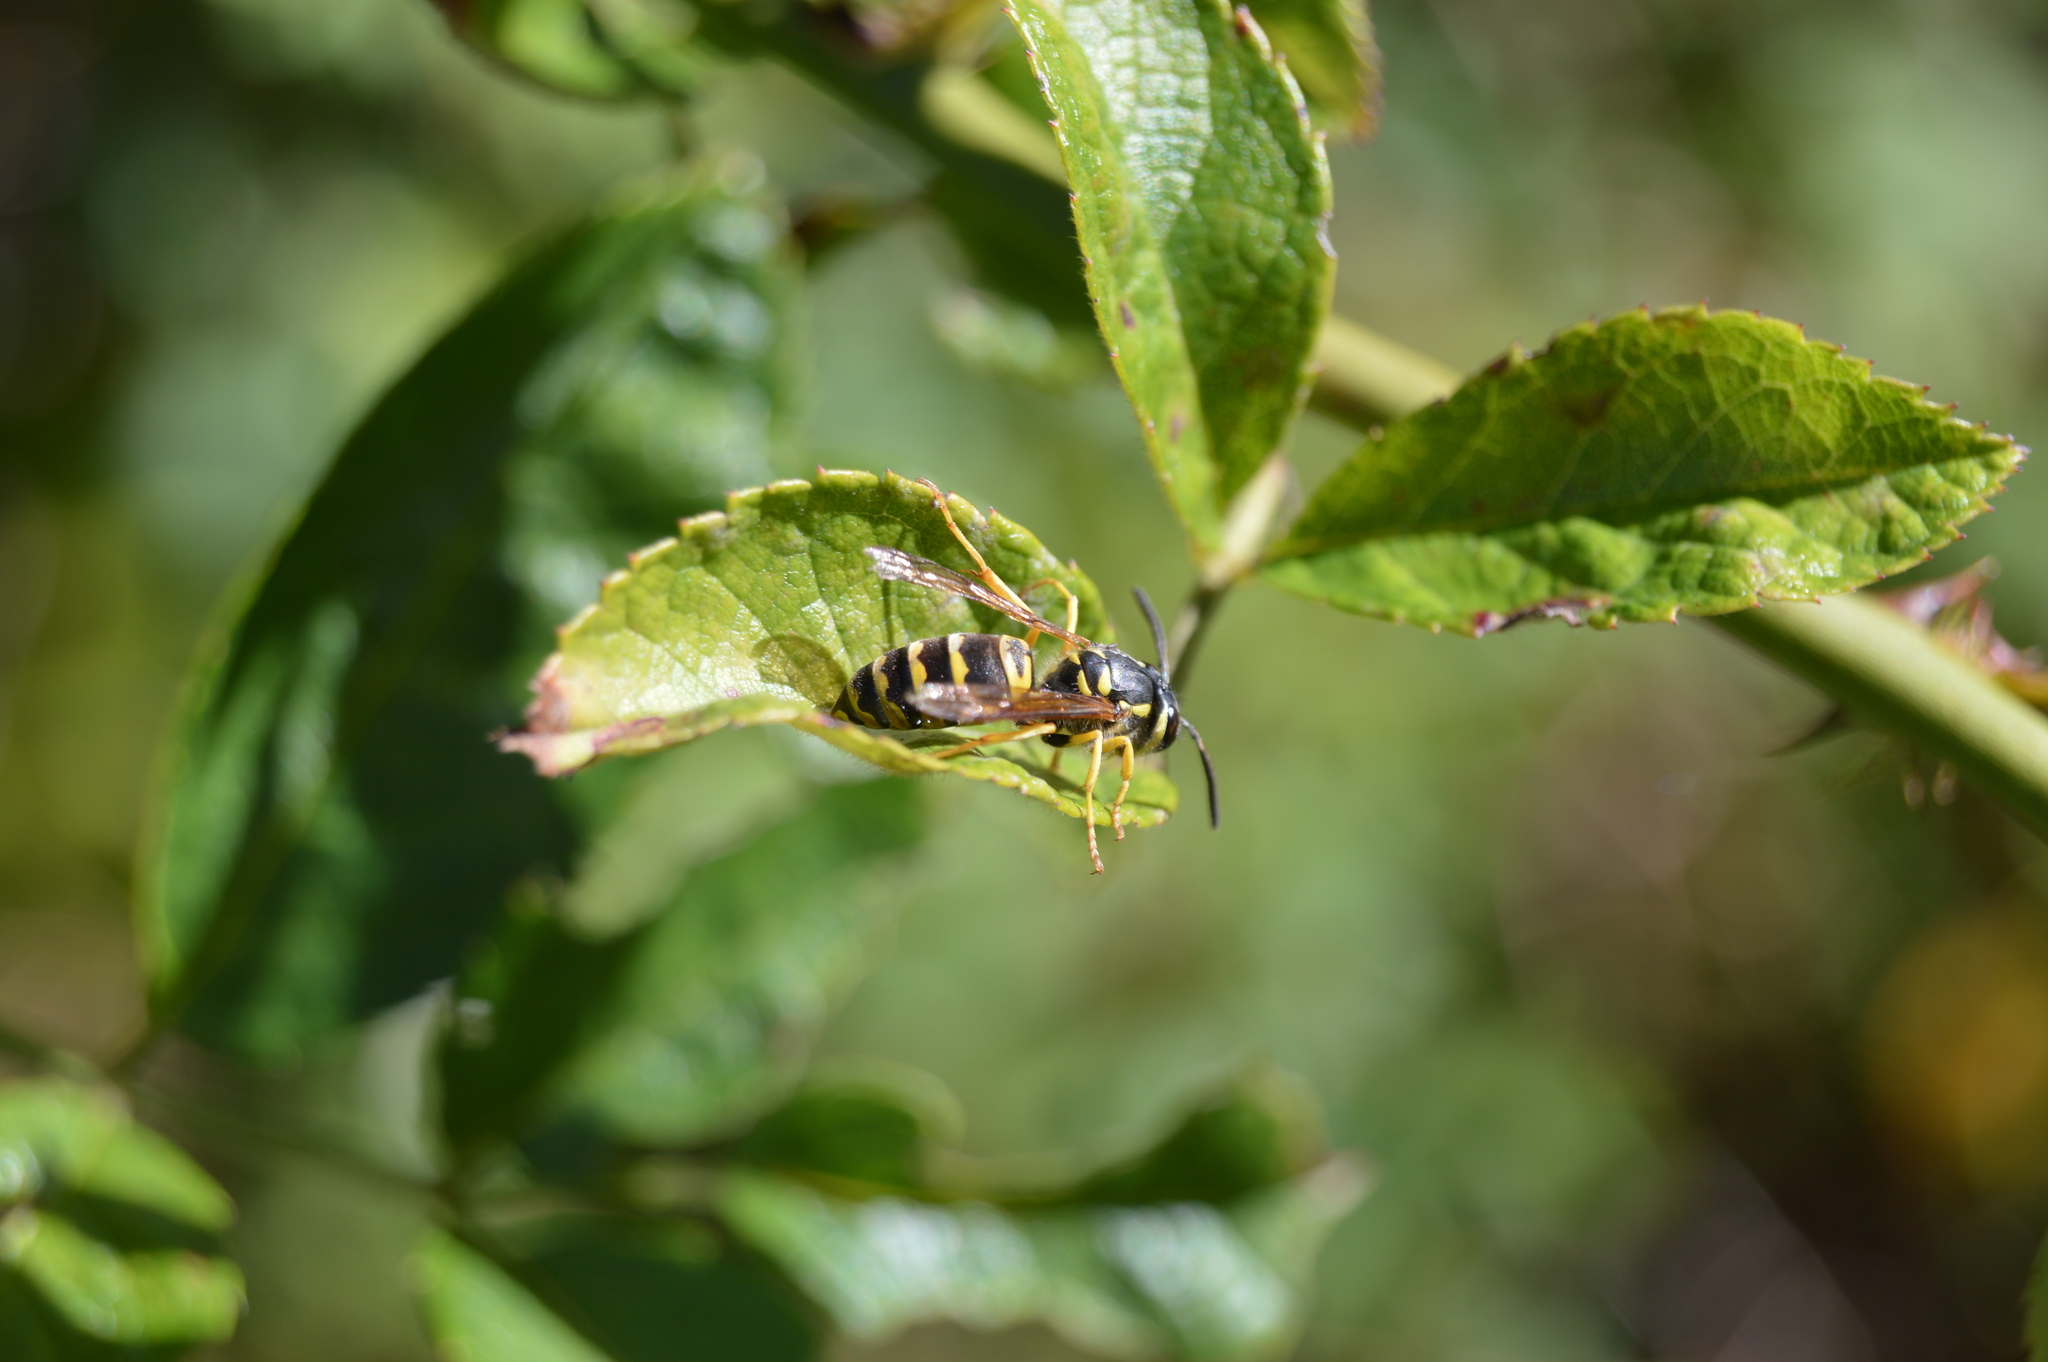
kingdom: Animalia
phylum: Arthropoda
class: Insecta
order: Hymenoptera
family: Vespidae
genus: Vespula
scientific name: Vespula maculifrons
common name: Eastern yellowjacket
